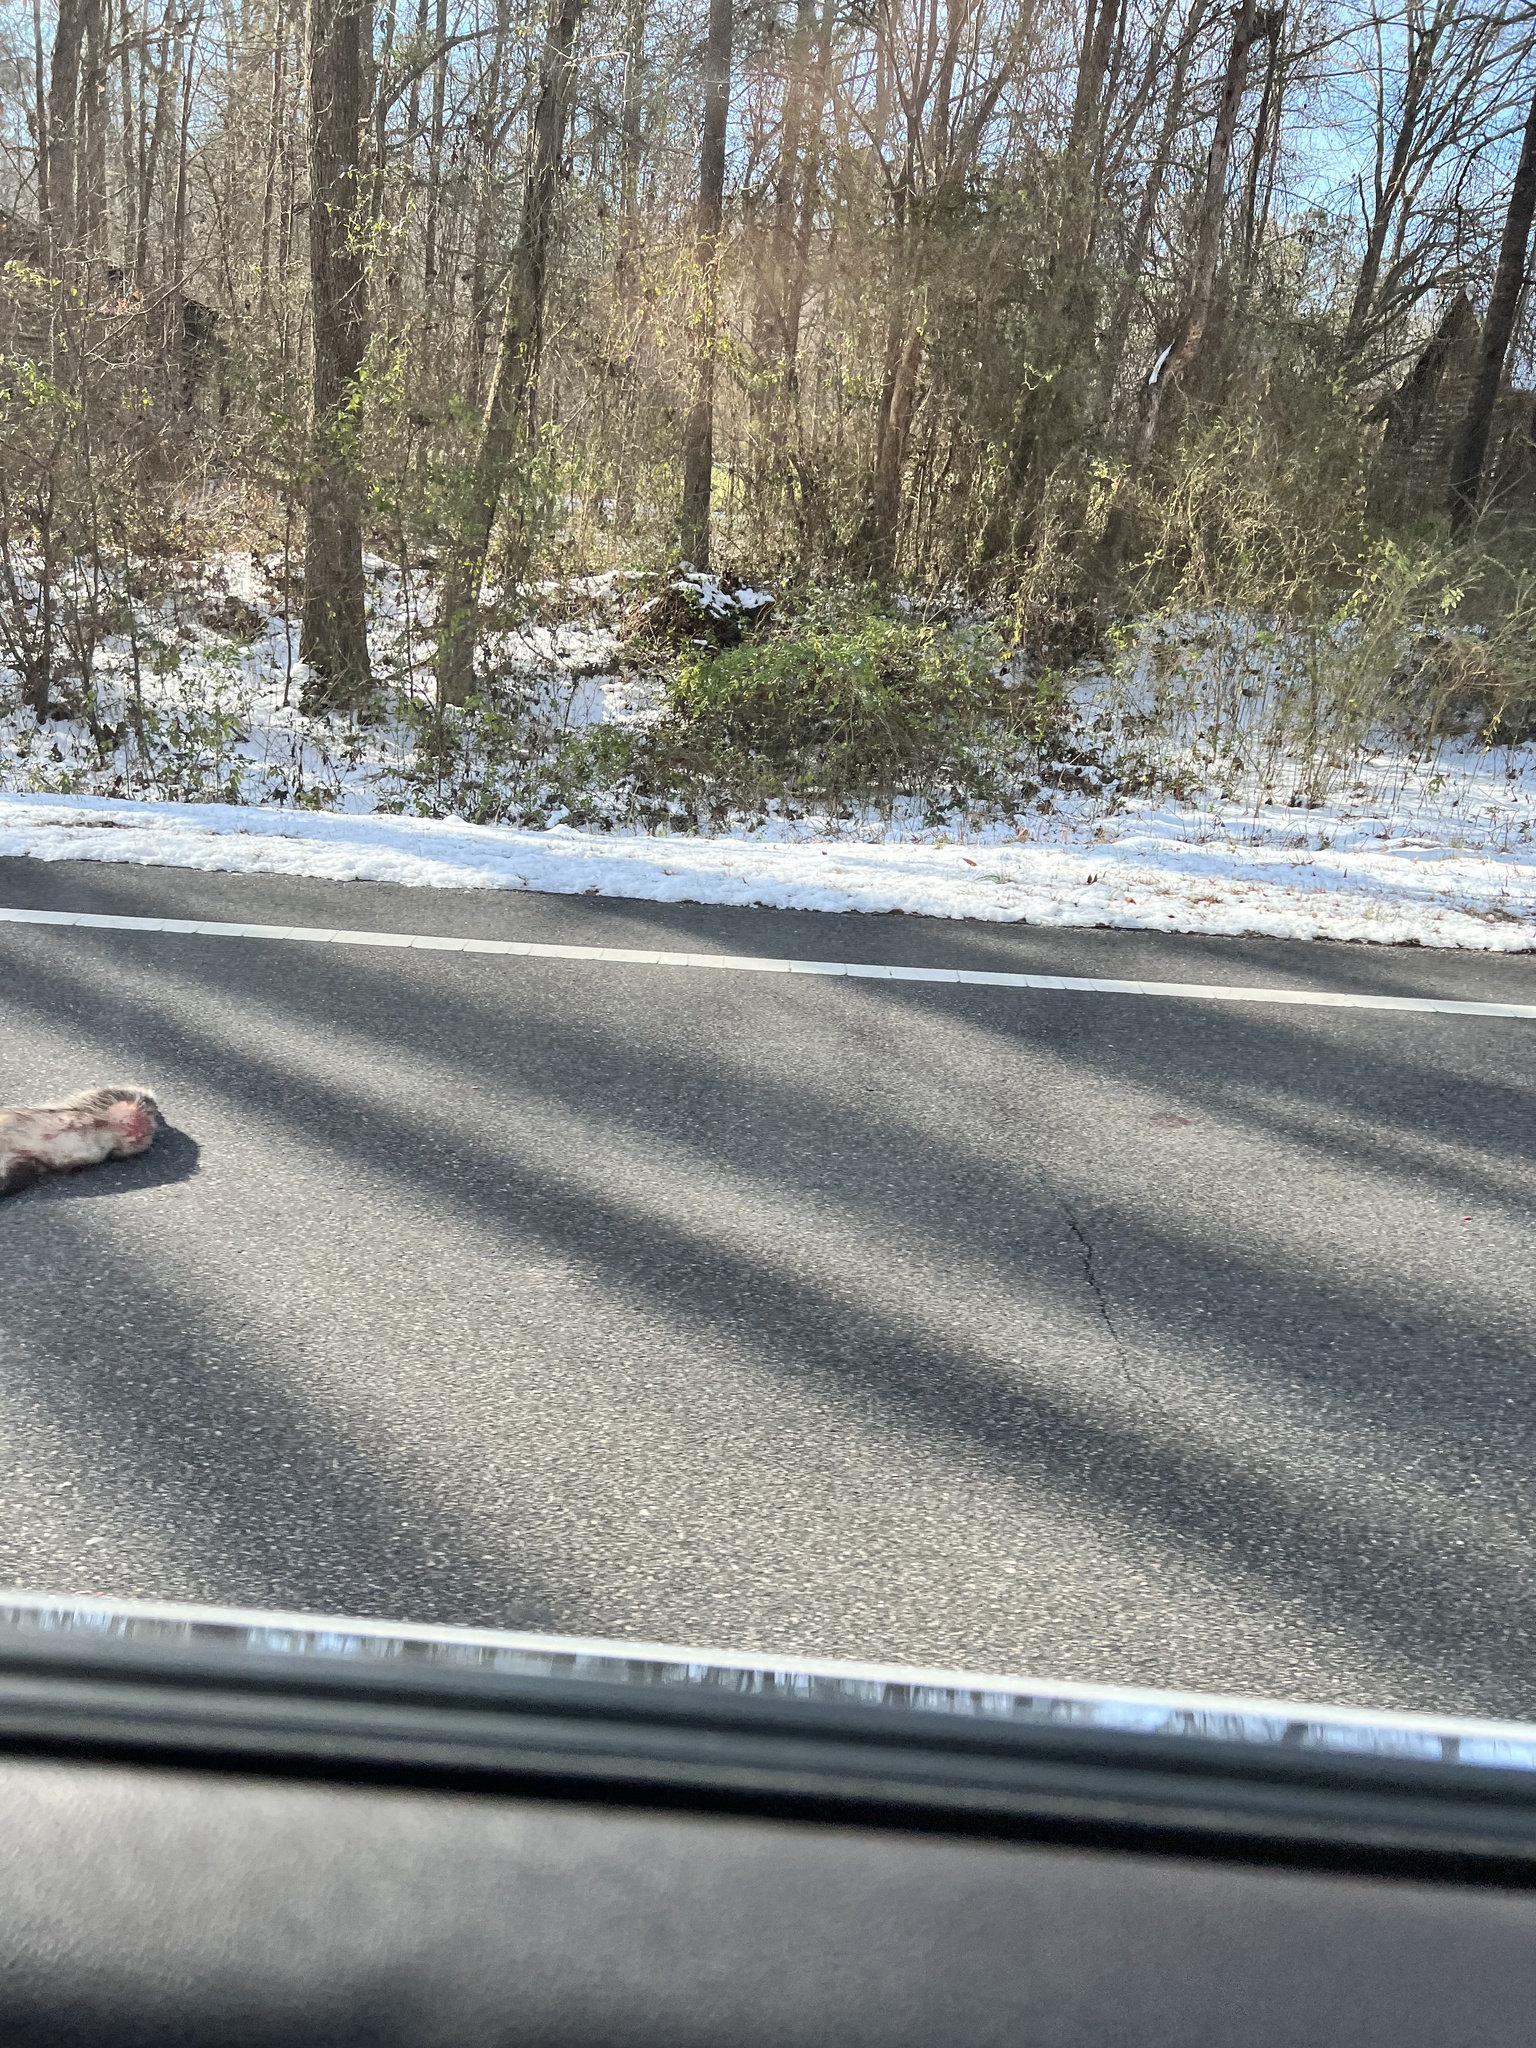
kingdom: Animalia
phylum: Chordata
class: Mammalia
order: Didelphimorphia
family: Didelphidae
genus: Didelphis
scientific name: Didelphis virginiana
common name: Virginia opossum
